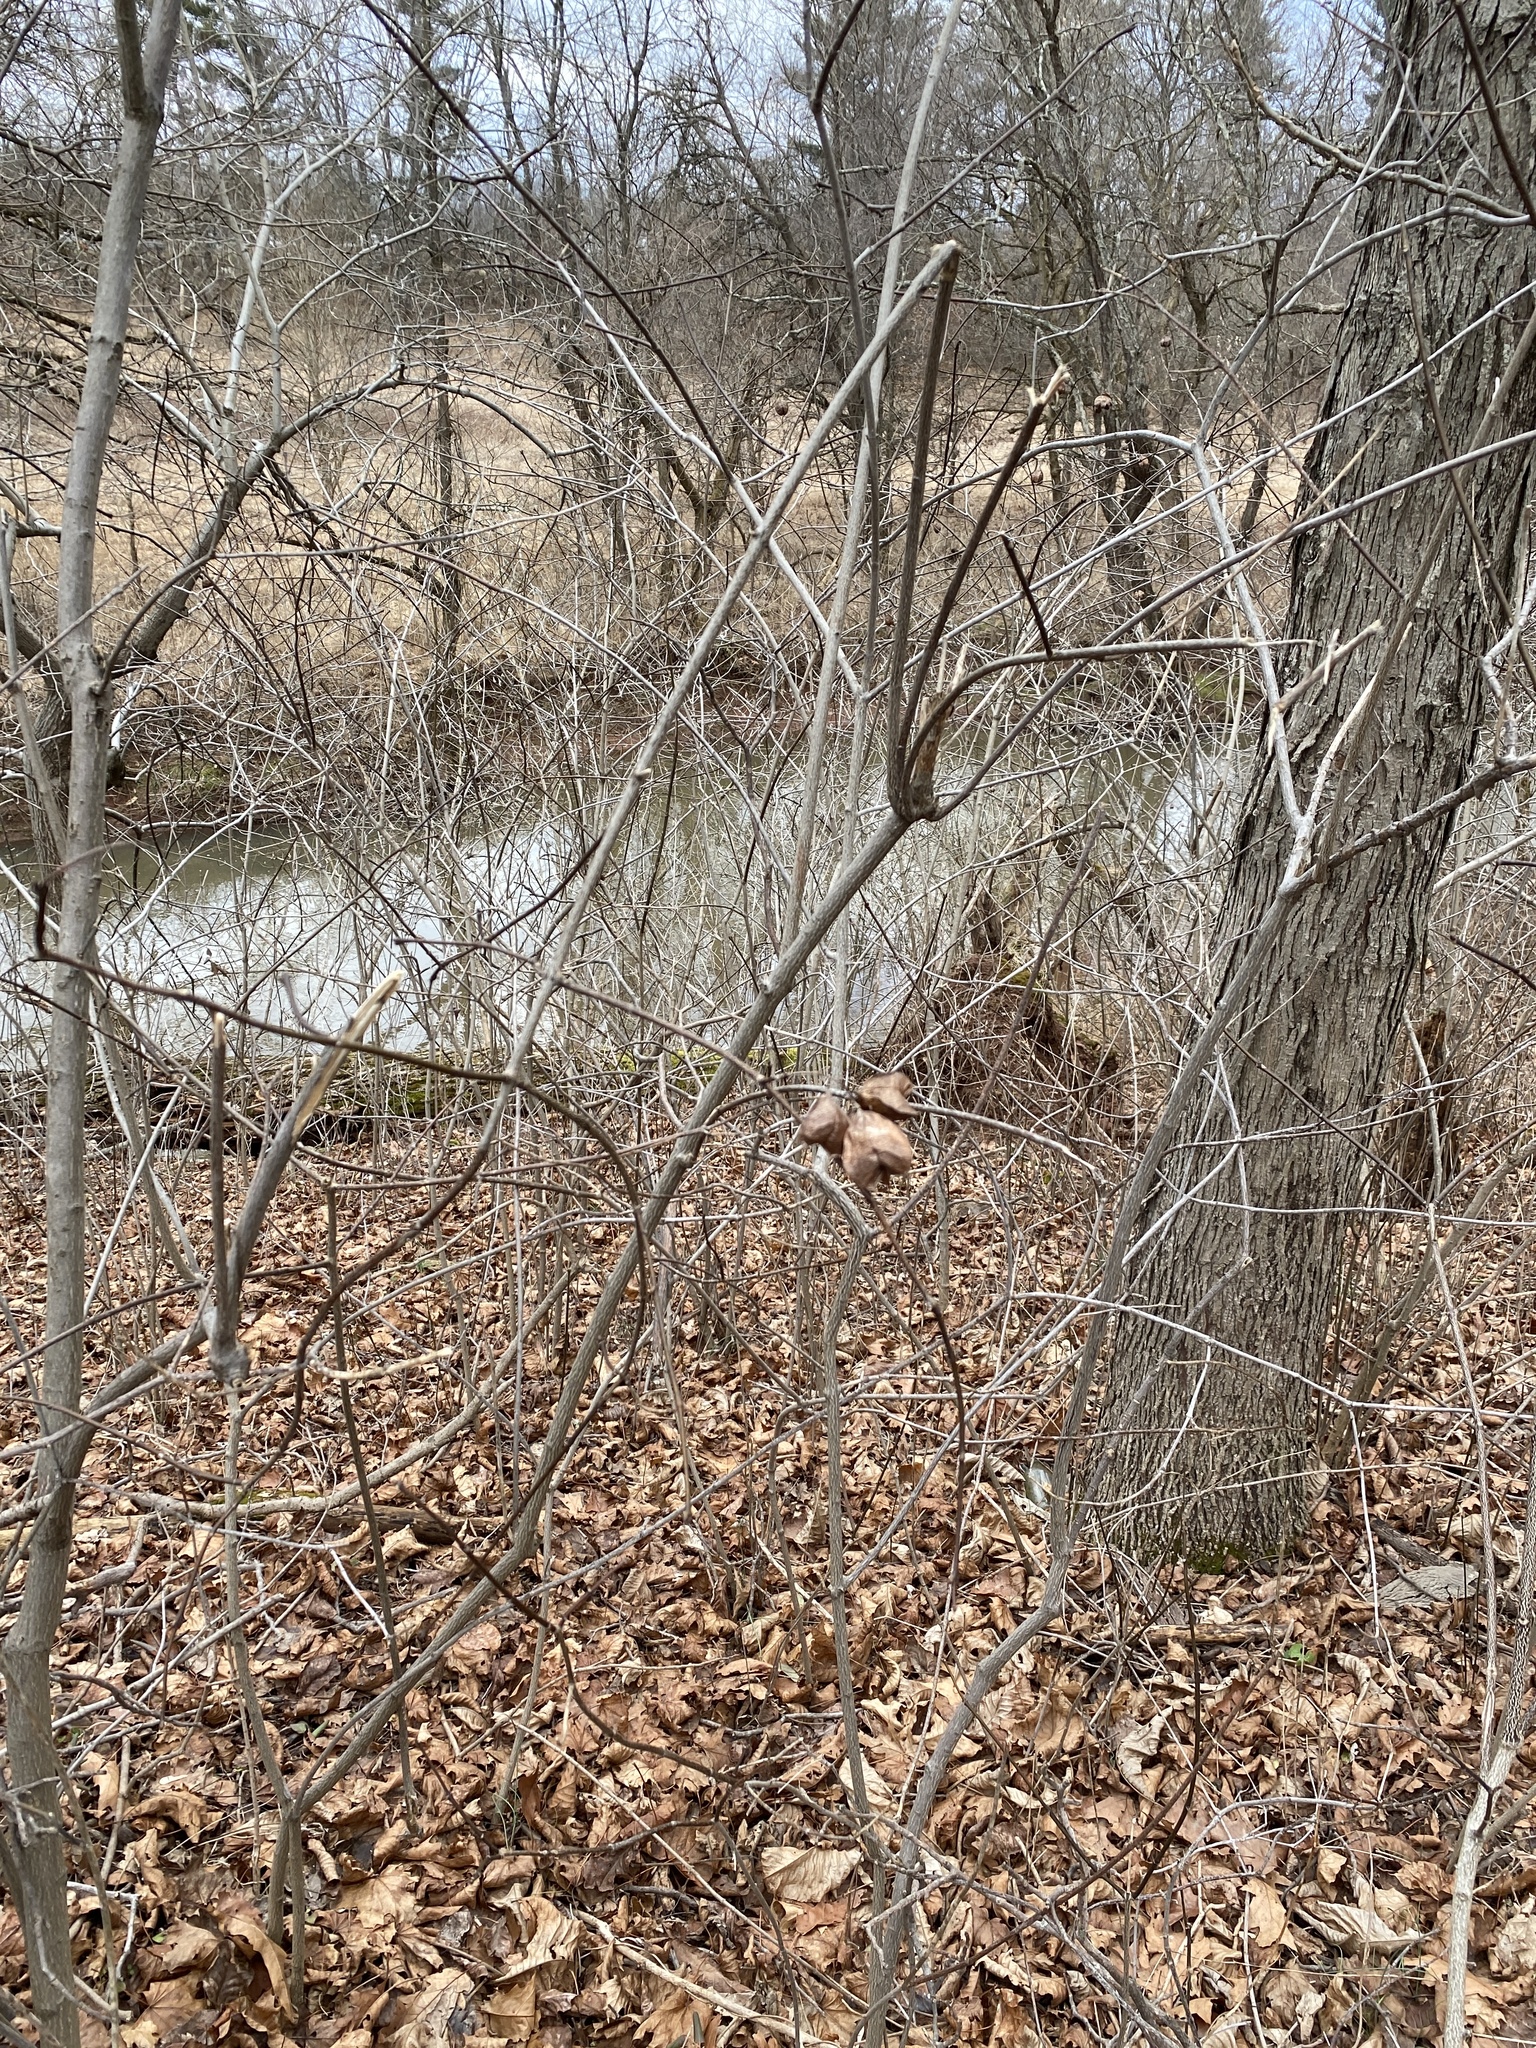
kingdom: Plantae
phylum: Tracheophyta
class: Magnoliopsida
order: Crossosomatales
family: Staphyleaceae
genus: Staphylea
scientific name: Staphylea trifolia
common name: American bladdernut
